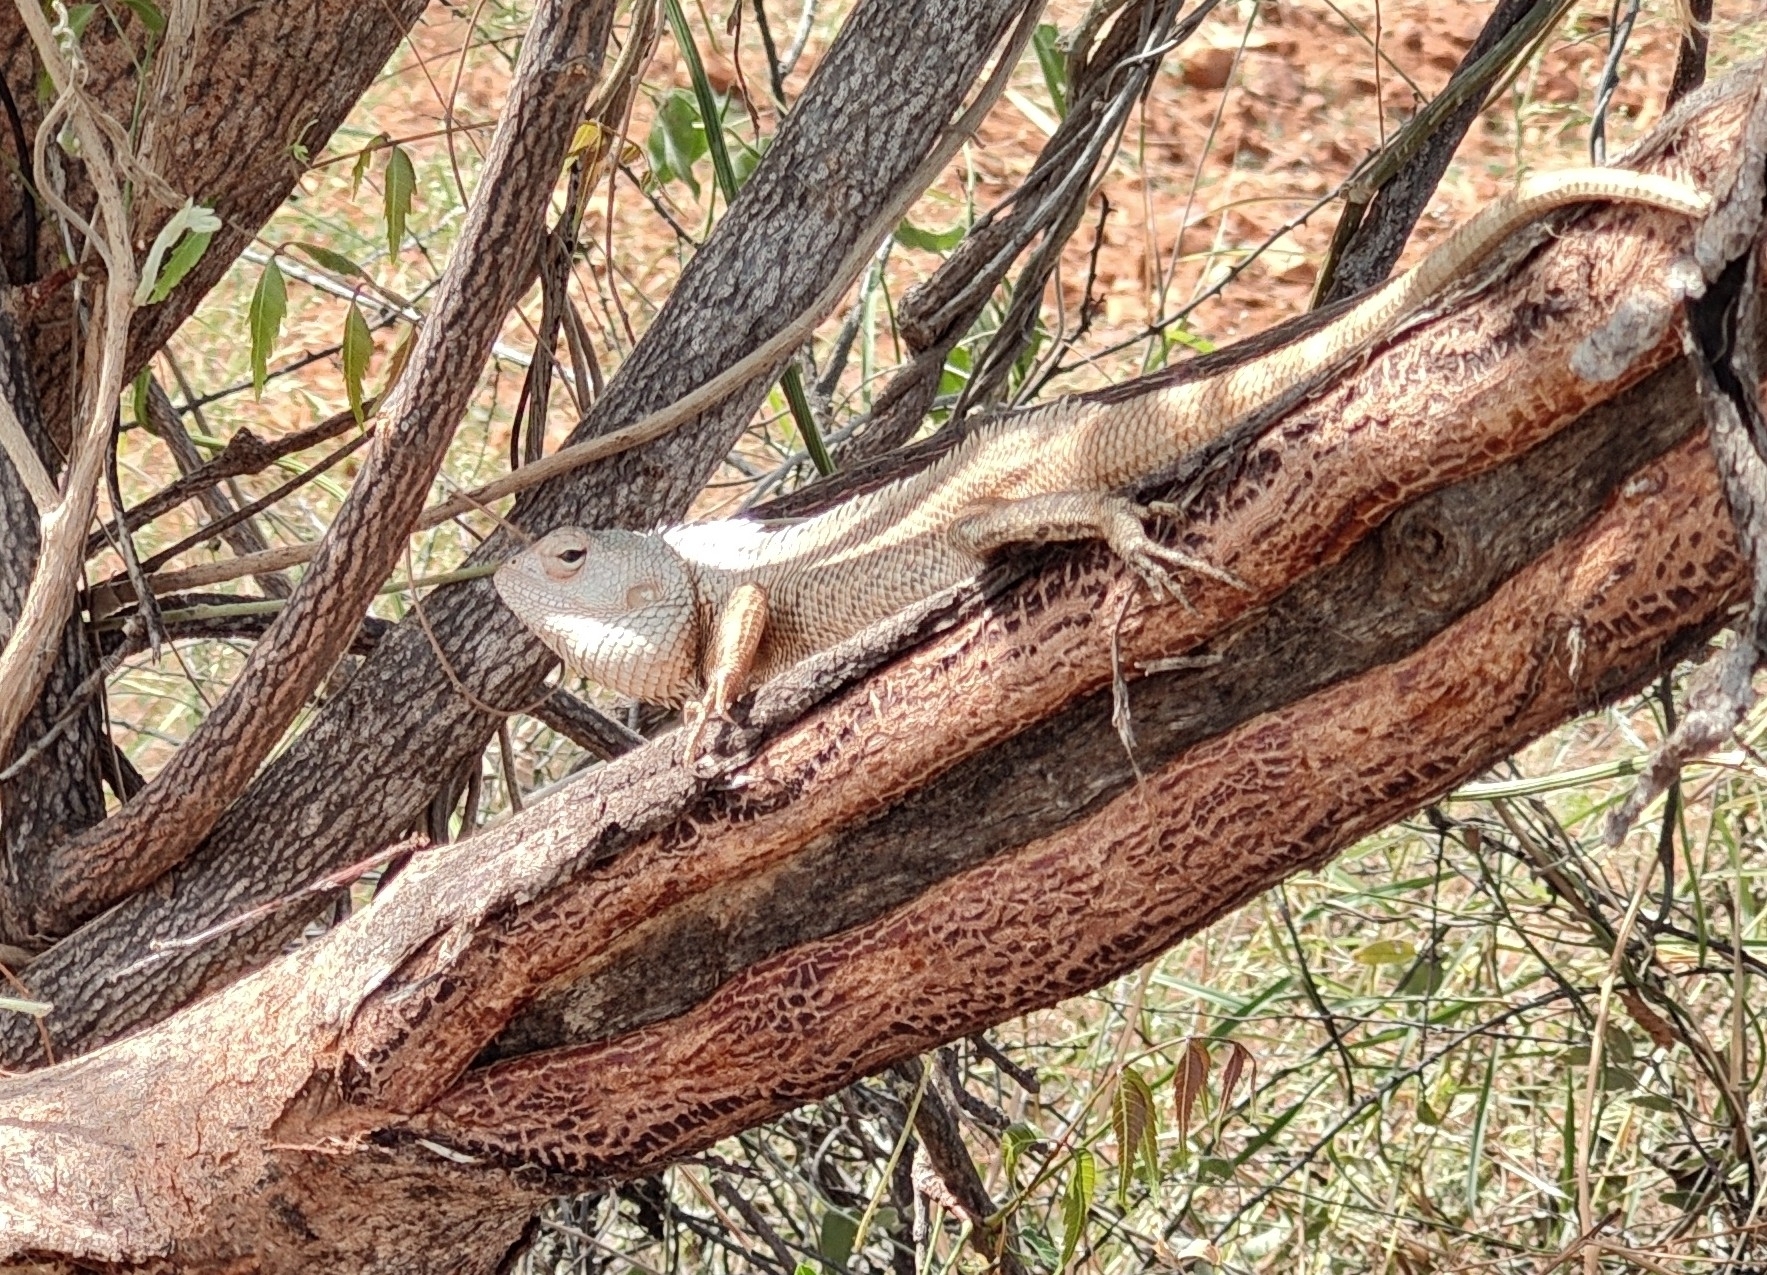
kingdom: Animalia
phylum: Chordata
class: Squamata
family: Agamidae
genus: Calotes
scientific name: Calotes versicolor
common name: Oriental garden lizard
